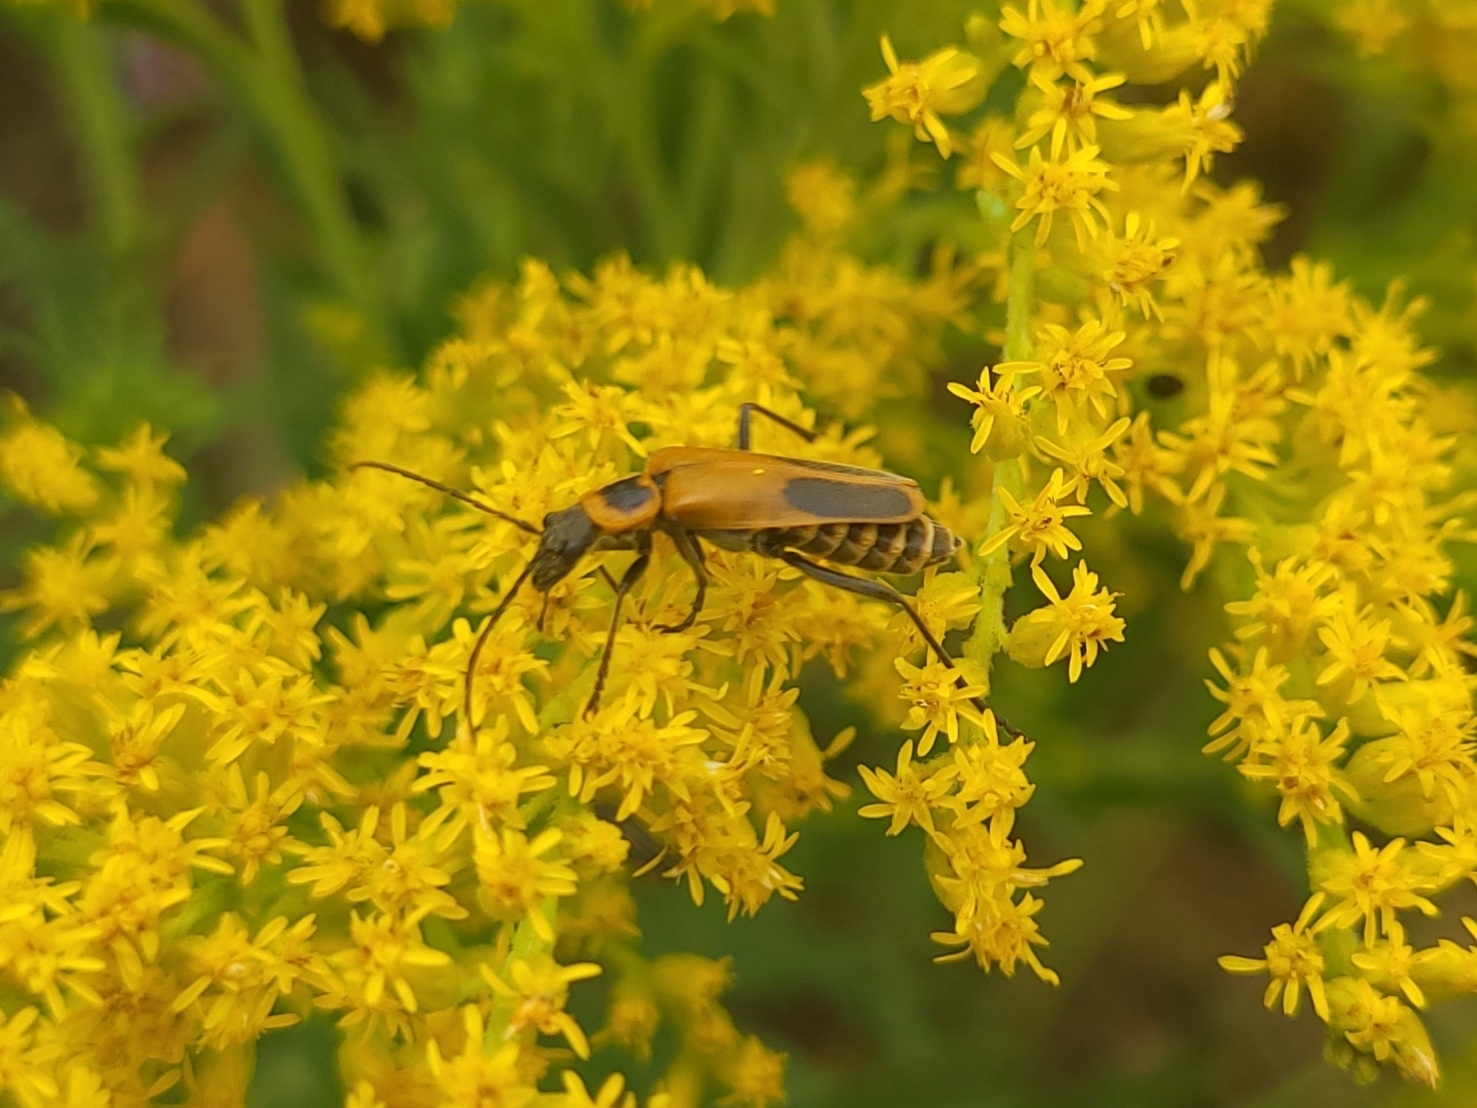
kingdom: Animalia
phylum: Arthropoda
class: Insecta
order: Coleoptera
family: Cantharidae
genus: Chauliognathus
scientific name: Chauliognathus pensylvanicus
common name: Goldenrod soldier beetle
